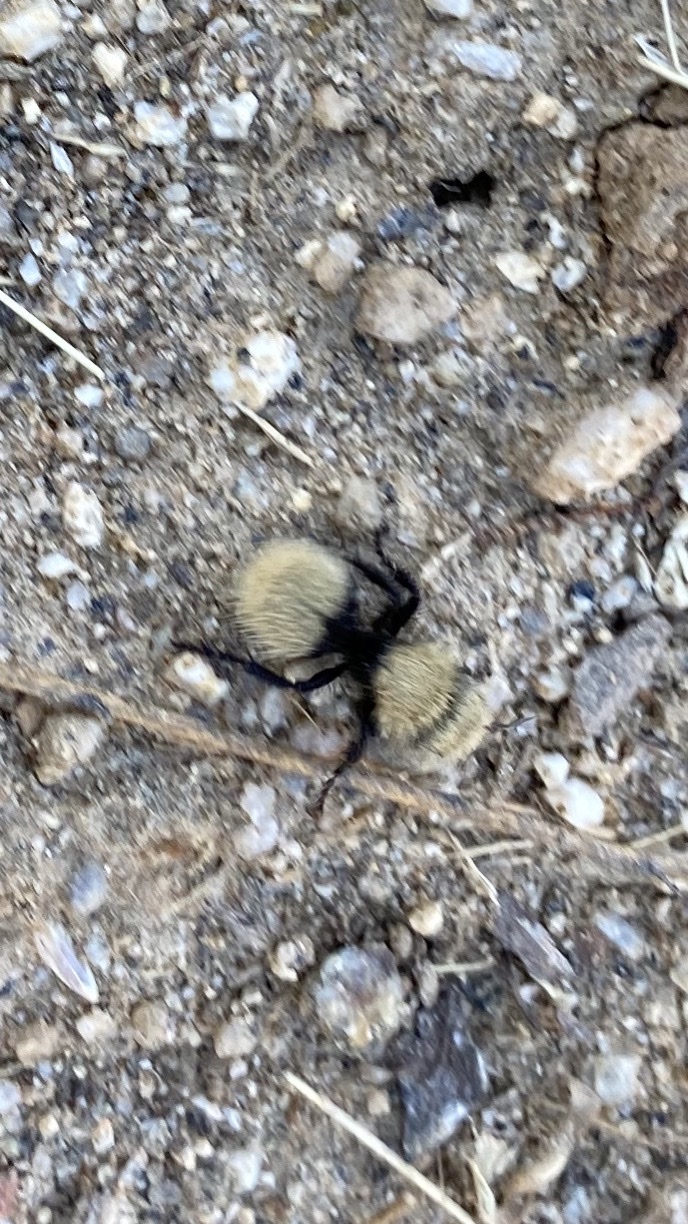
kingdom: Animalia
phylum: Arthropoda
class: Insecta
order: Hymenoptera
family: Mutillidae
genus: Dasymutilla
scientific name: Dasymutilla
